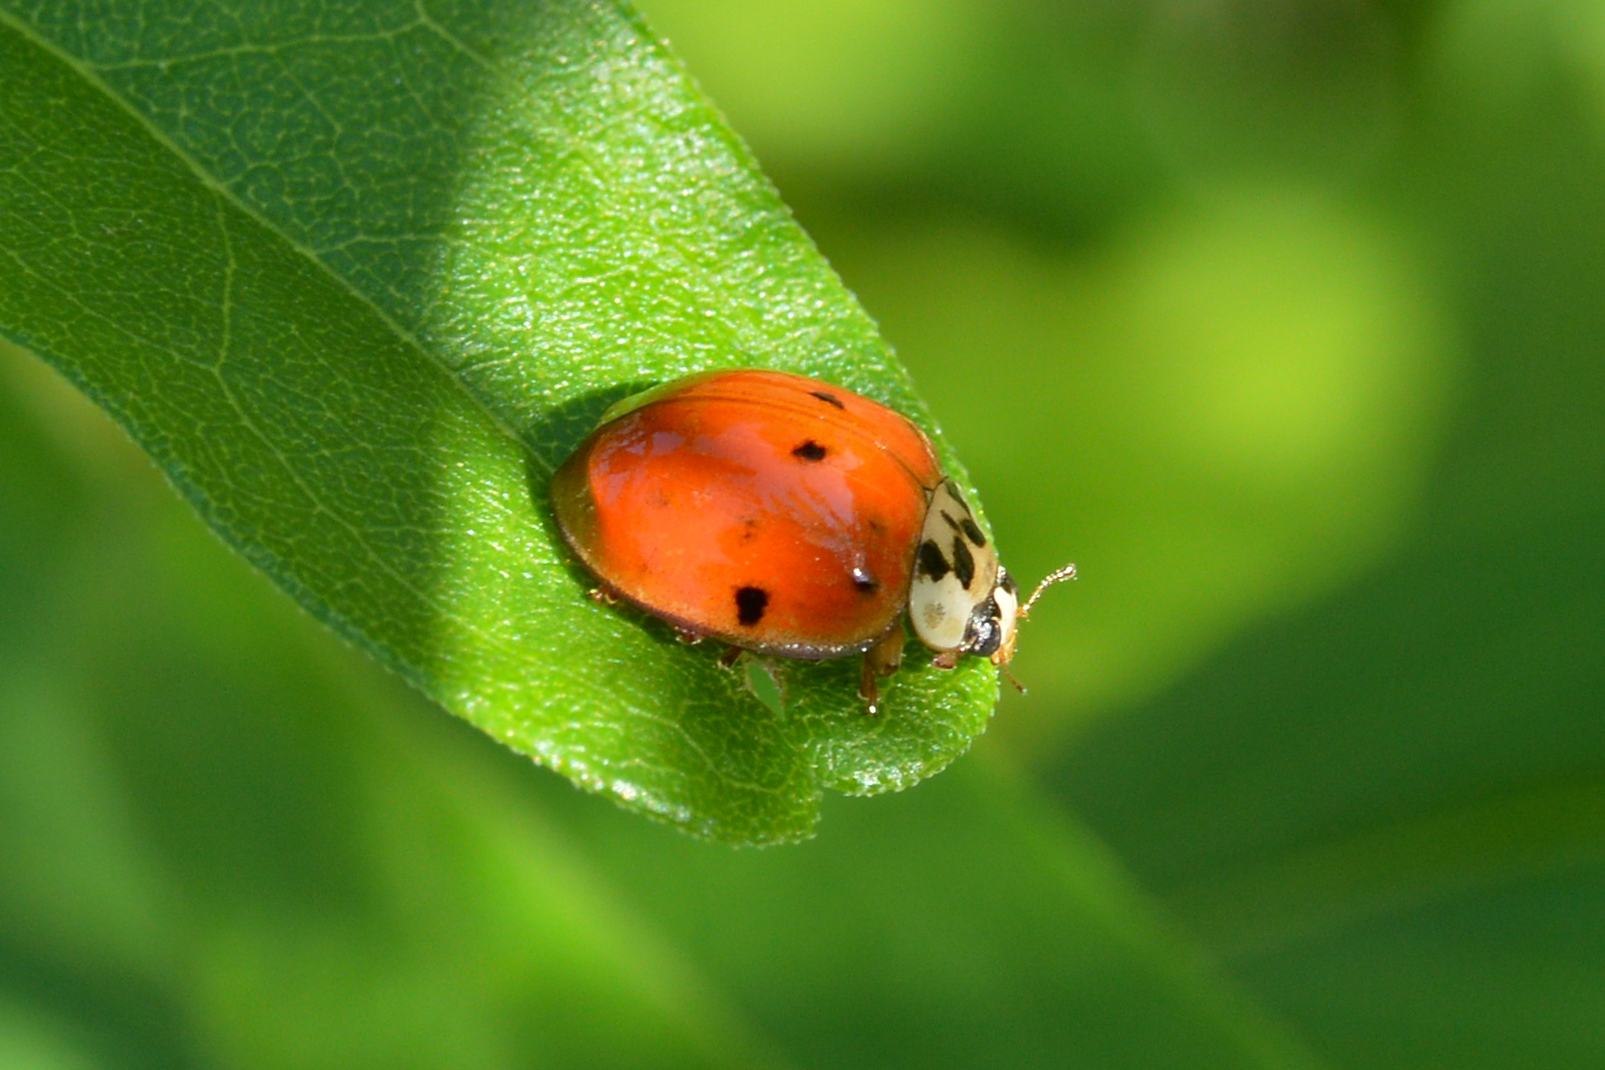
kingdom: Animalia
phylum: Arthropoda
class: Insecta
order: Coleoptera
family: Coccinellidae
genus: Harmonia
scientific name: Harmonia axyridis
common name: Harlequin ladybird
